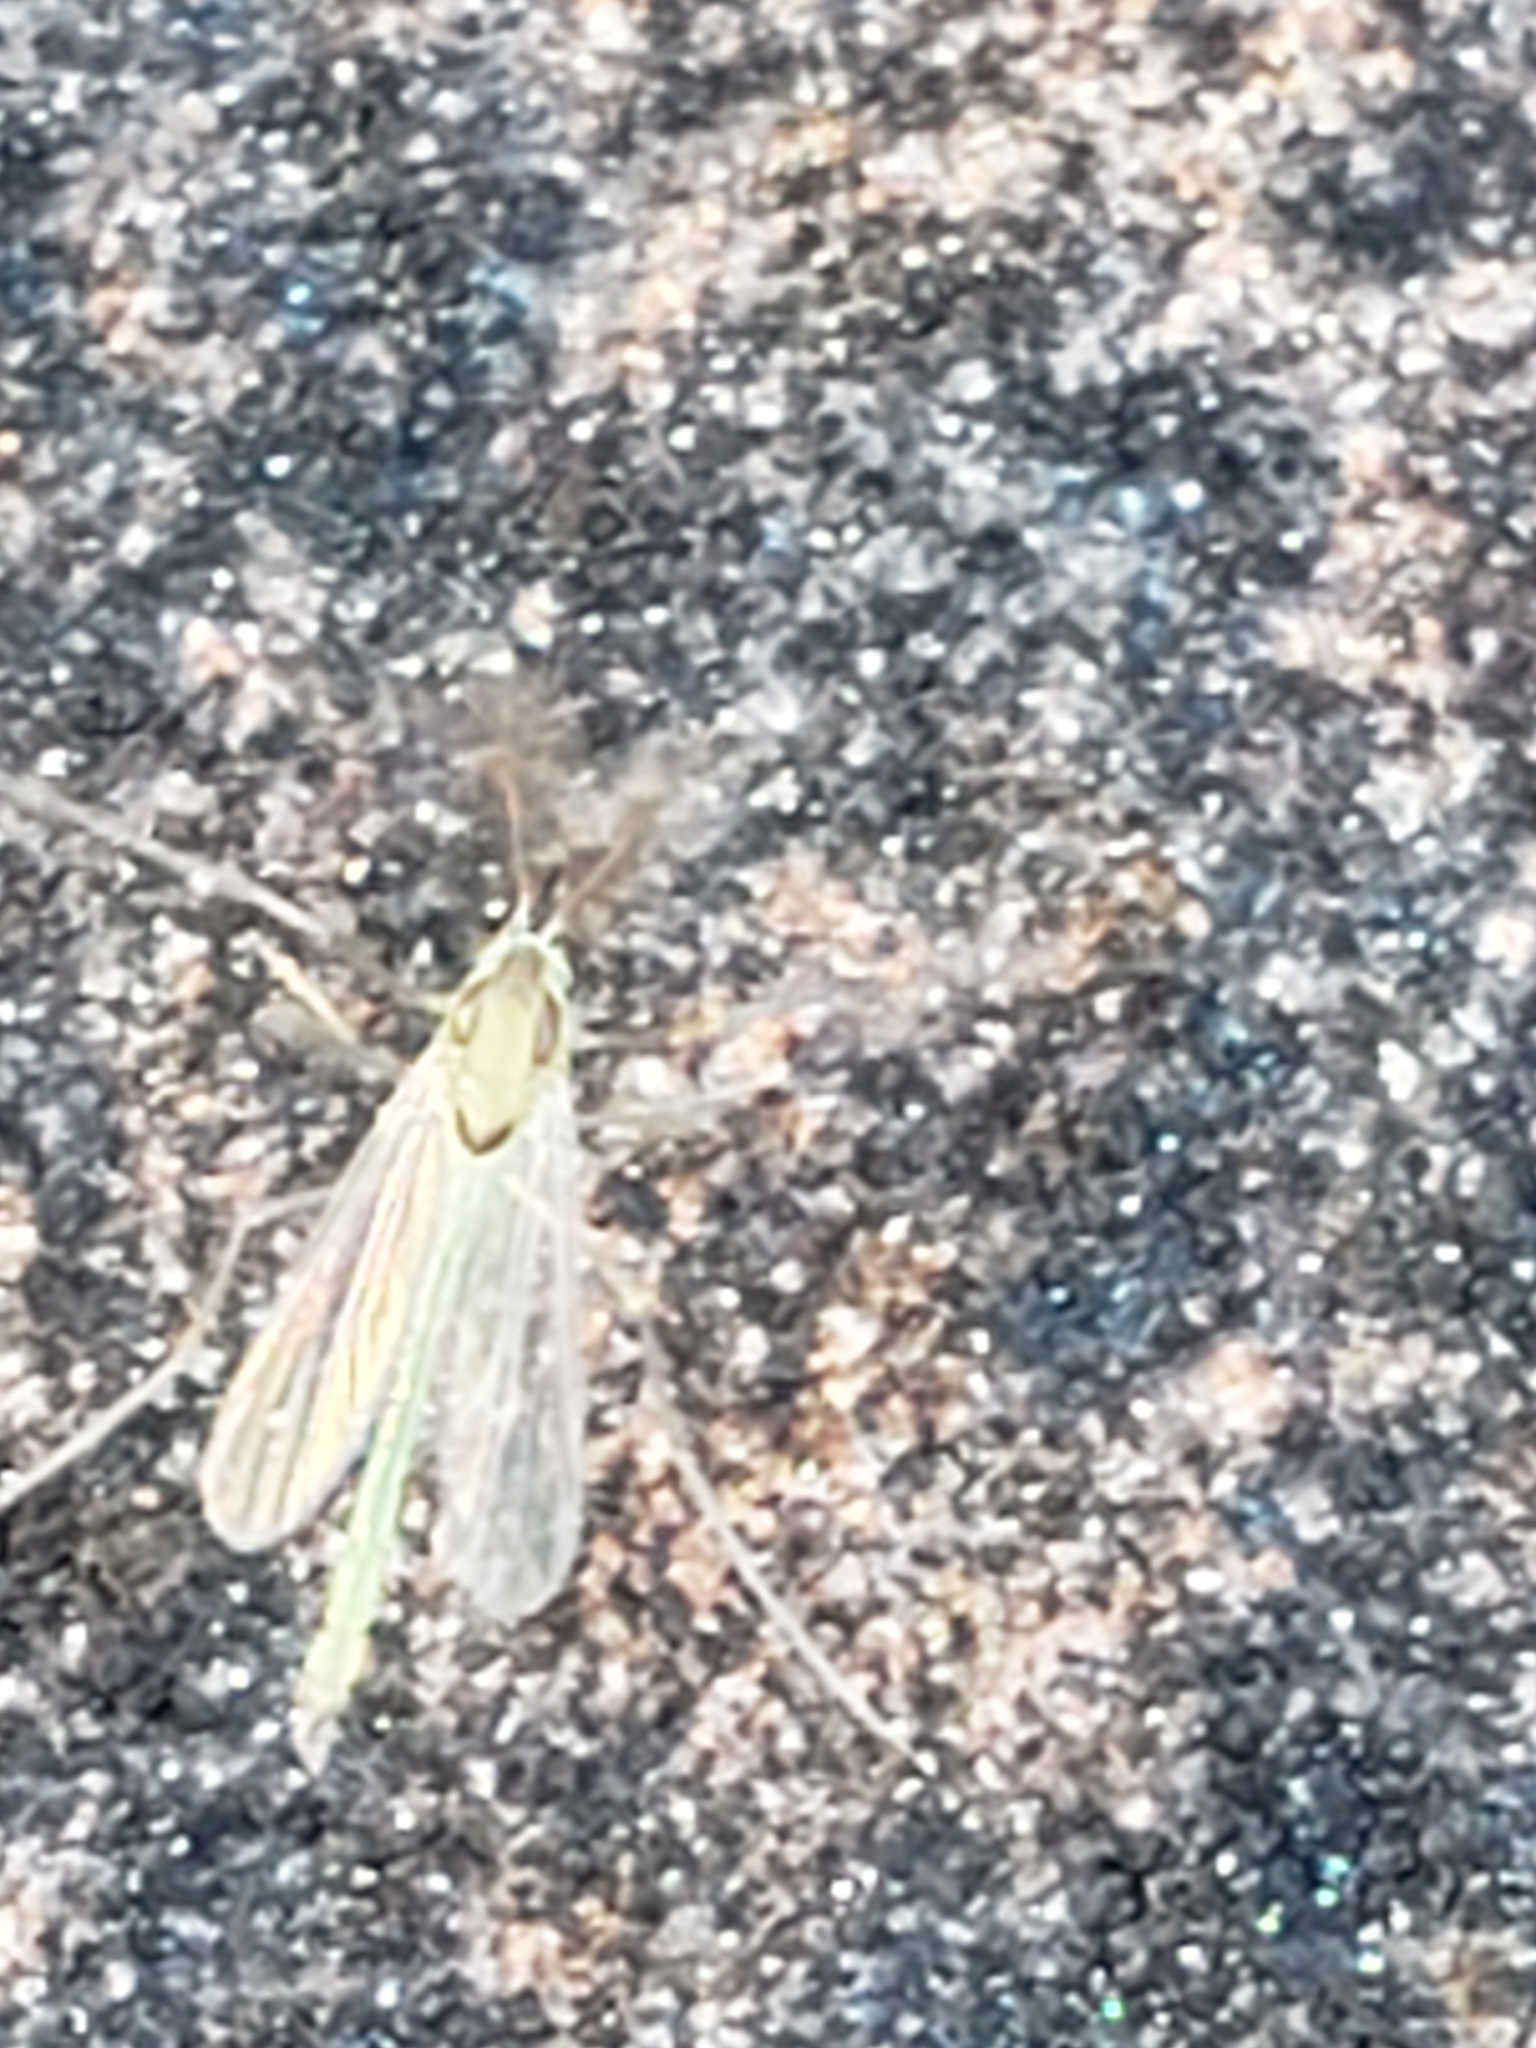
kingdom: Animalia
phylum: Arthropoda
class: Insecta
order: Diptera
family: Chironomidae
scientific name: Chironomidae
